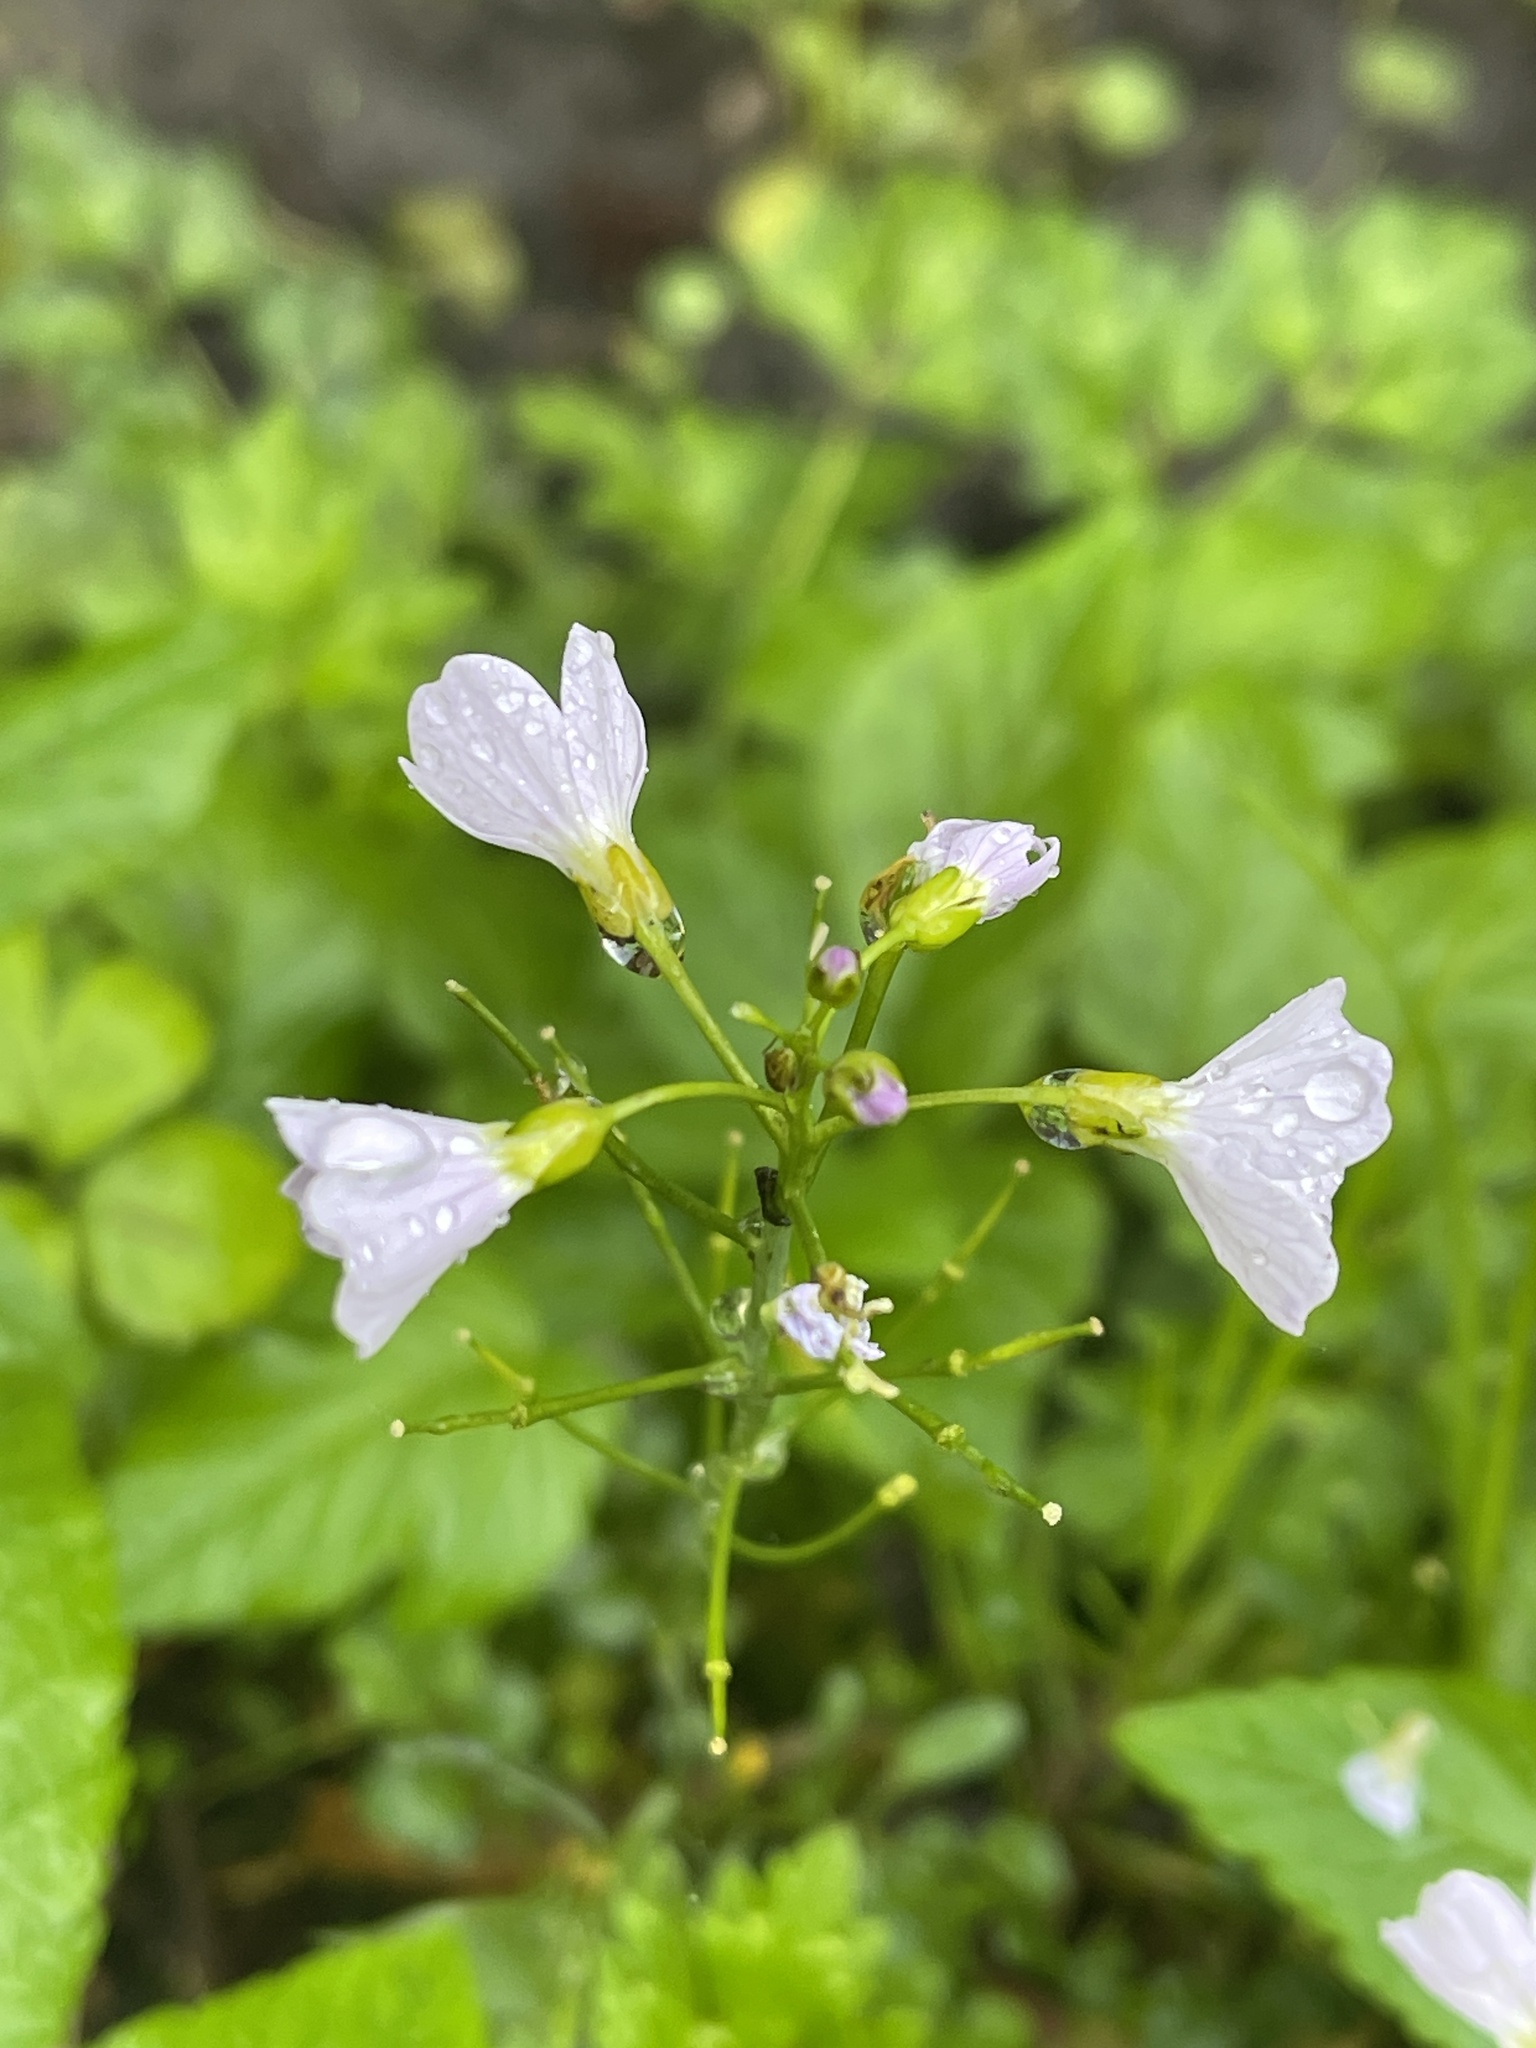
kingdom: Plantae
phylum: Tracheophyta
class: Magnoliopsida
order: Brassicales
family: Brassicaceae
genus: Cardamine
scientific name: Cardamine pratensis
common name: Cuckoo flower
